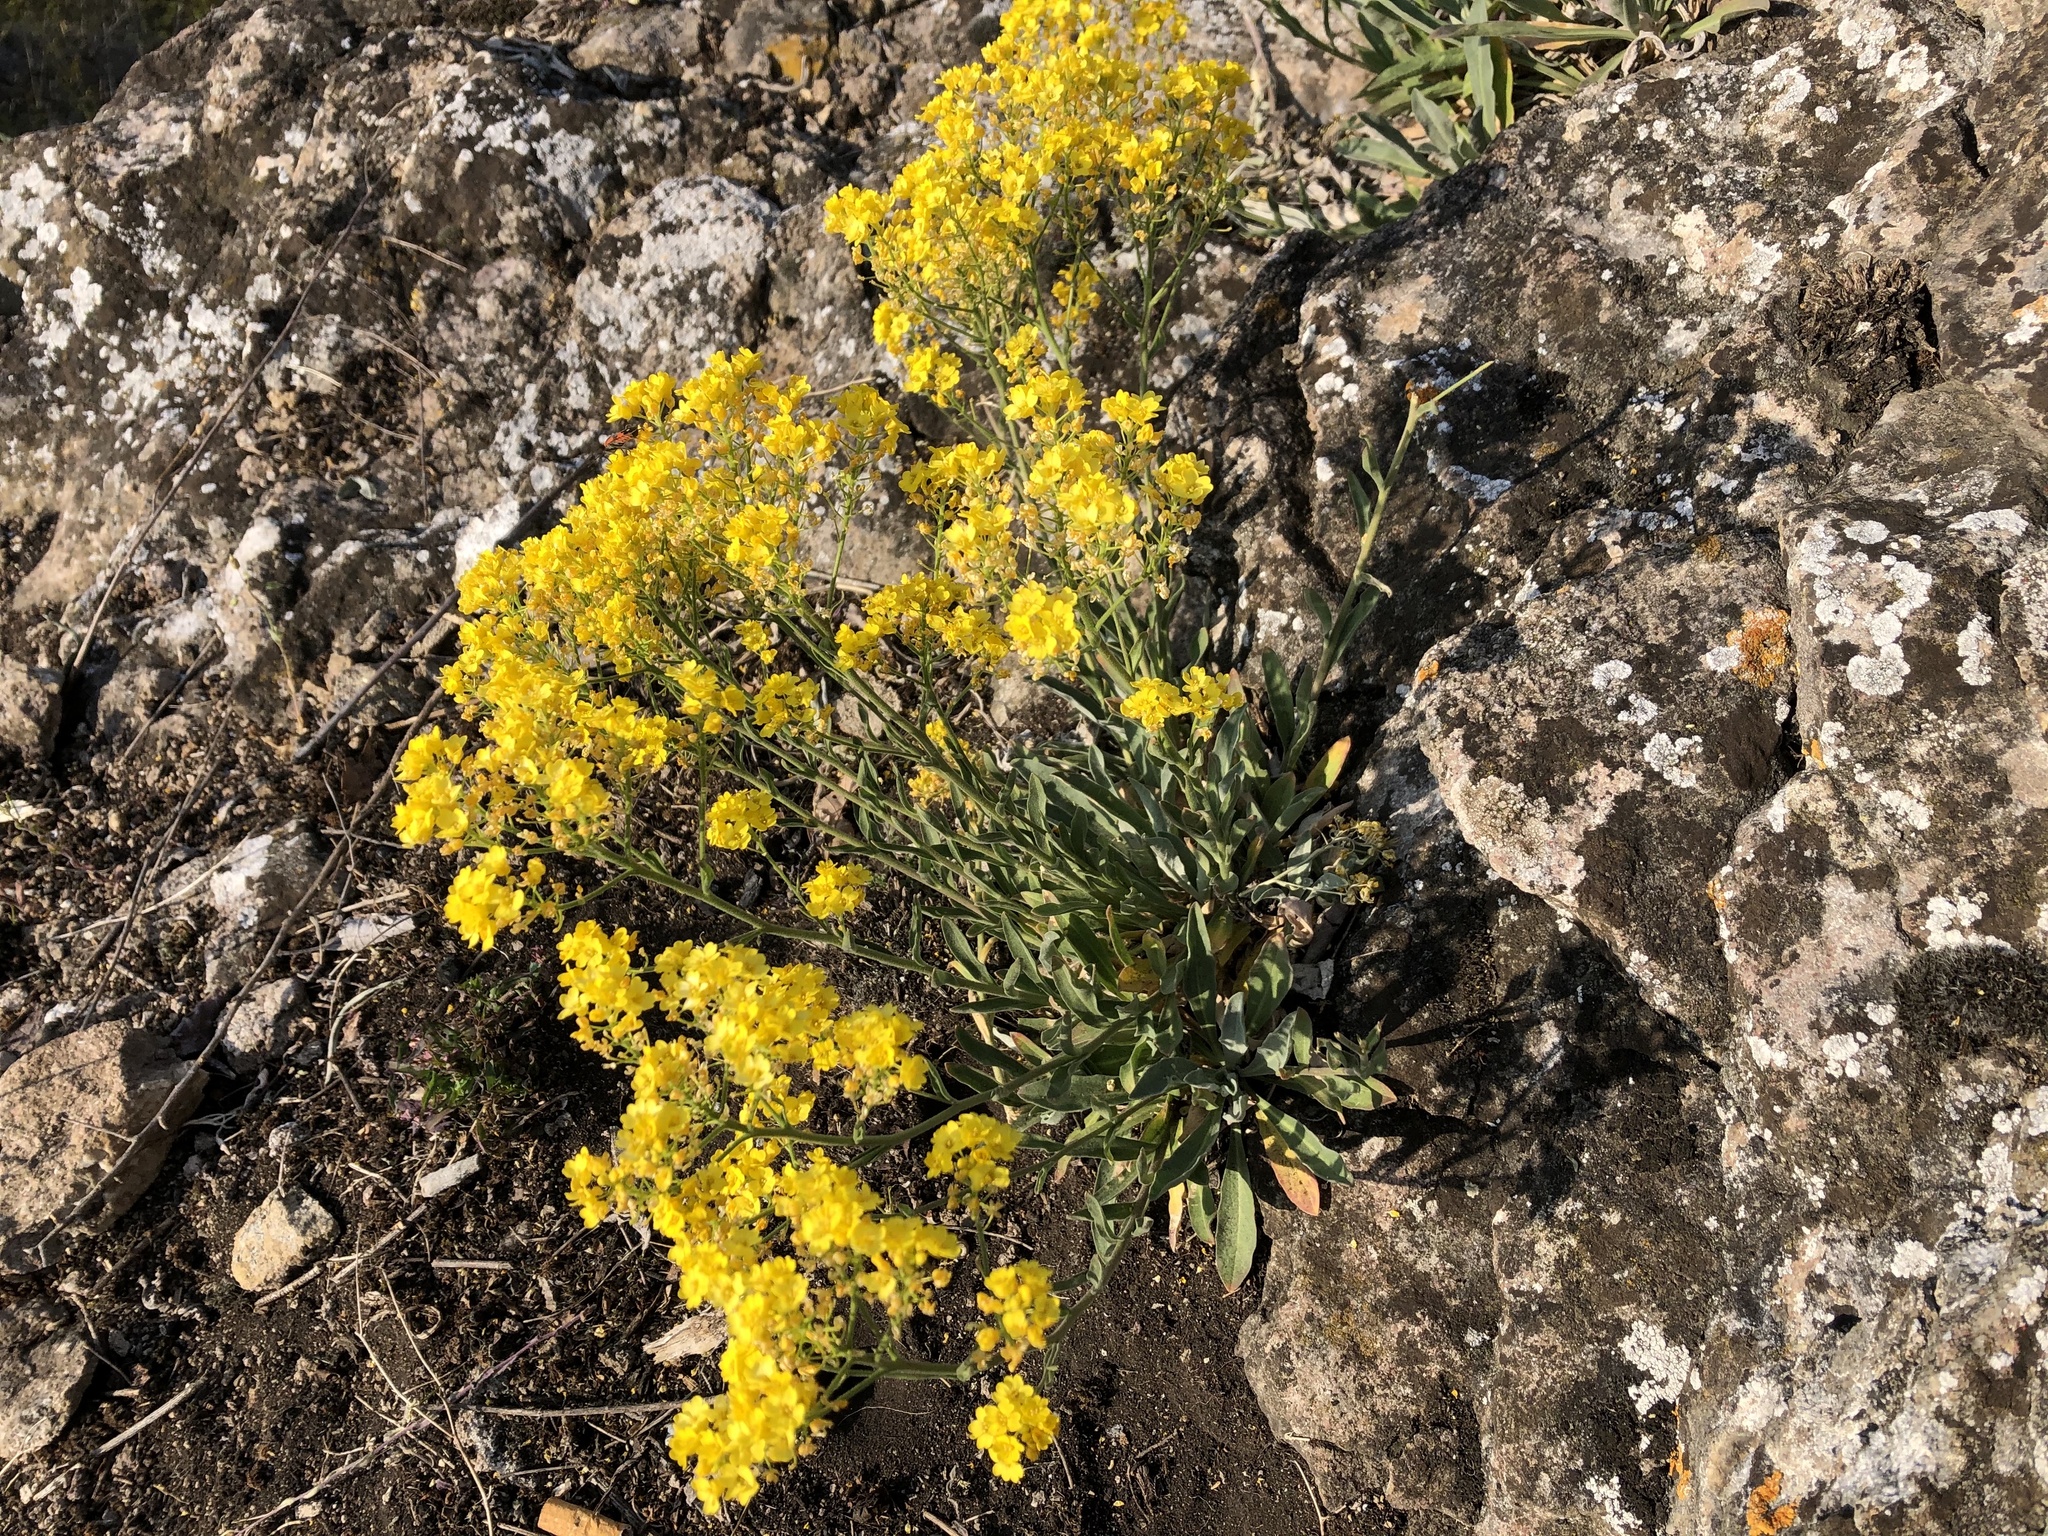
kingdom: Plantae
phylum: Tracheophyta
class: Magnoliopsida
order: Brassicales
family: Brassicaceae
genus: Aurinia
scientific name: Aurinia saxatilis
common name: Golden-tuft alyssum
